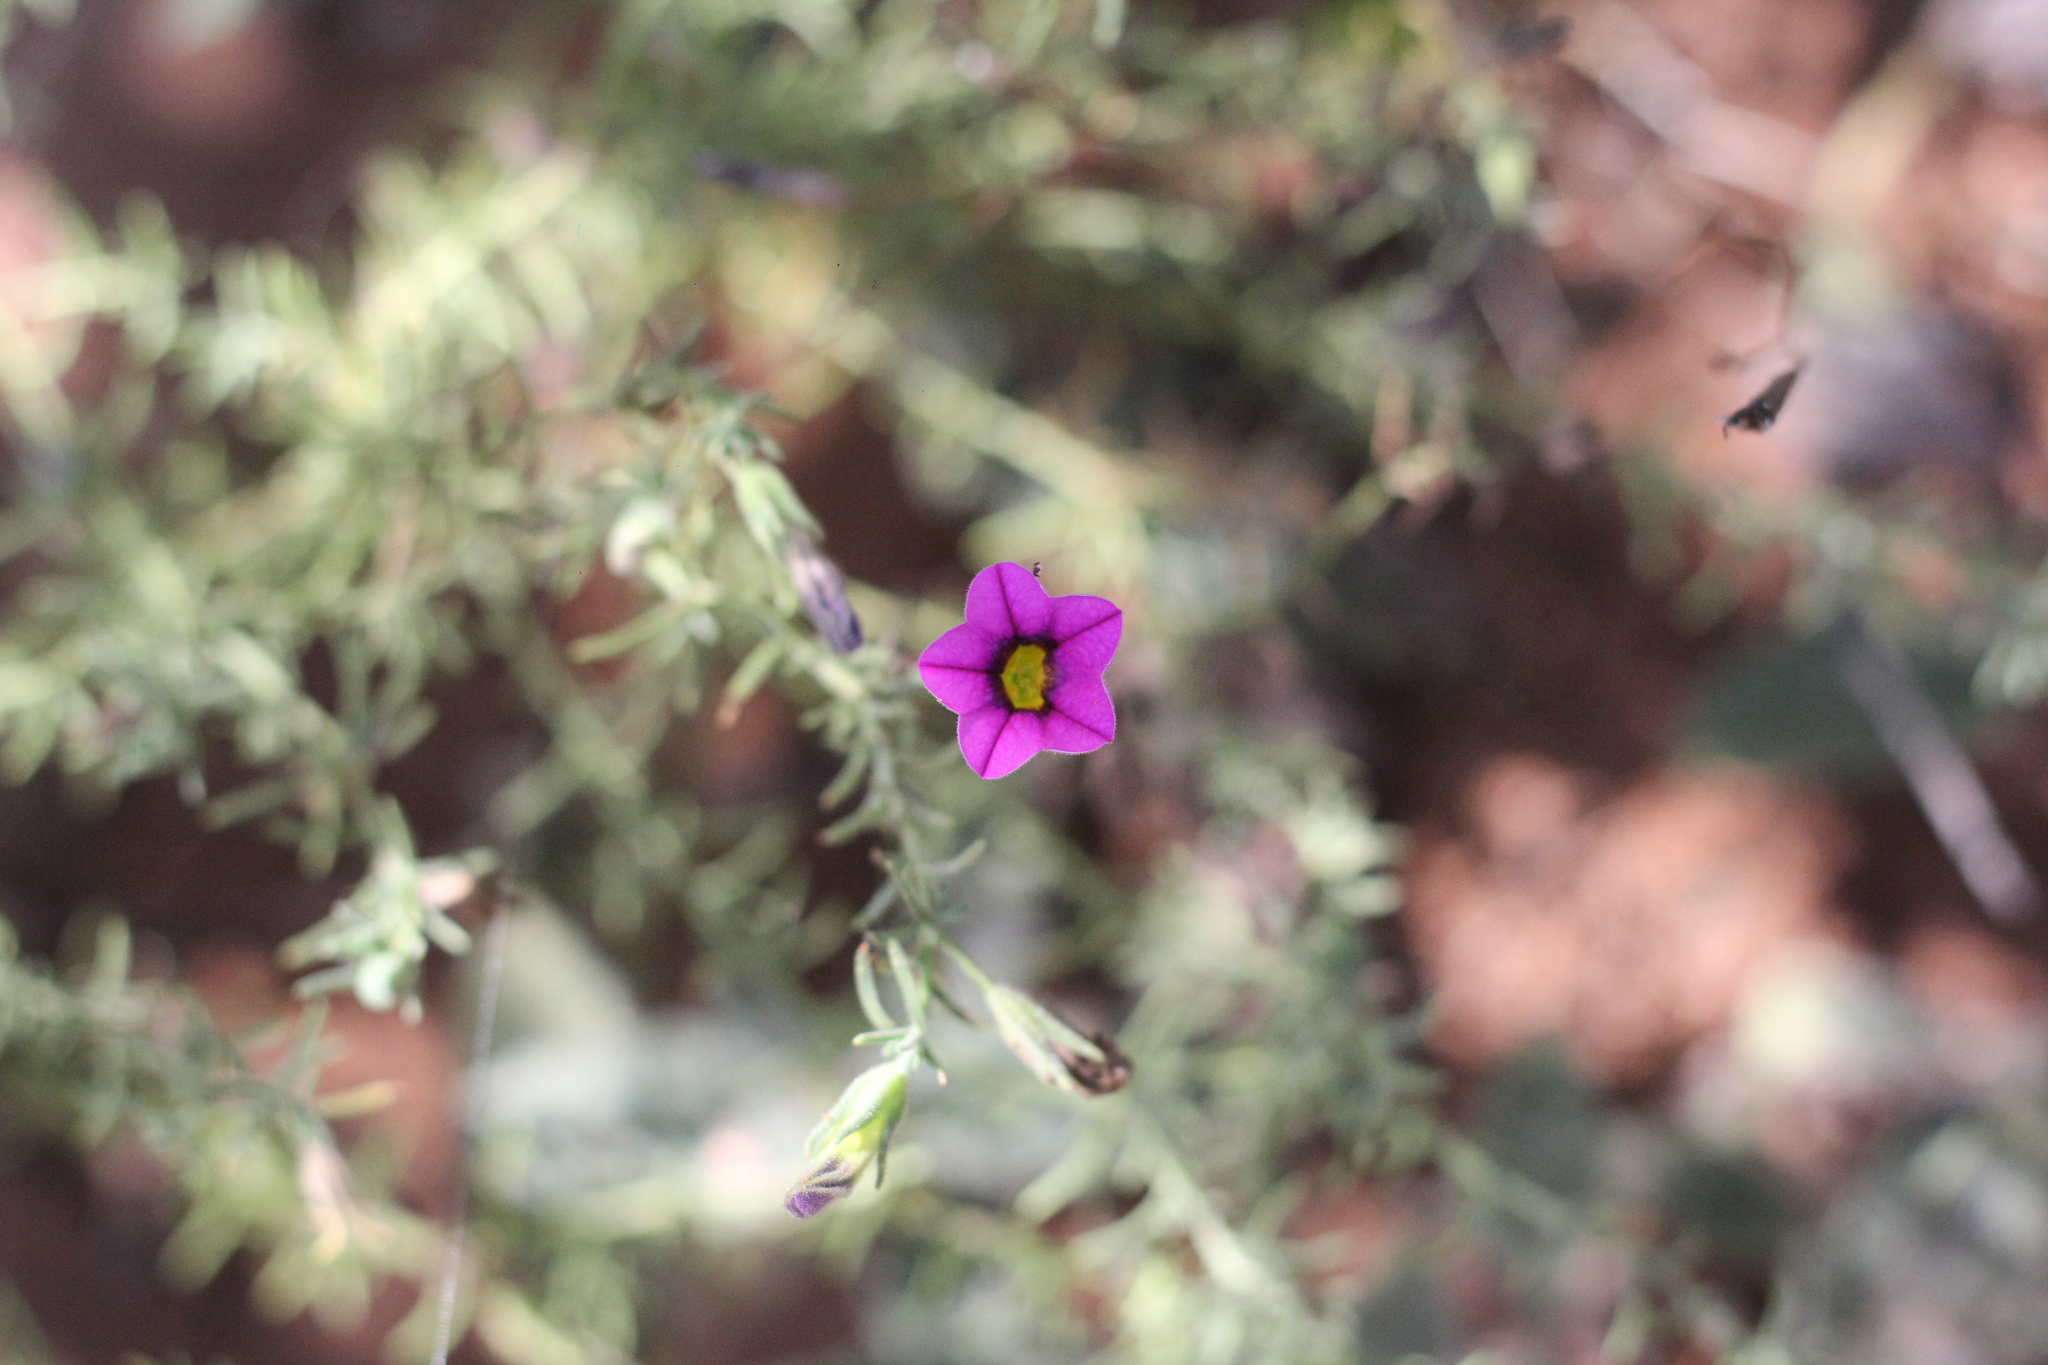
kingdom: Plantae
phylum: Tracheophyta
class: Magnoliopsida
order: Solanales
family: Solanaceae
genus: Calibrachoa
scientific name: Calibrachoa thymifolia
